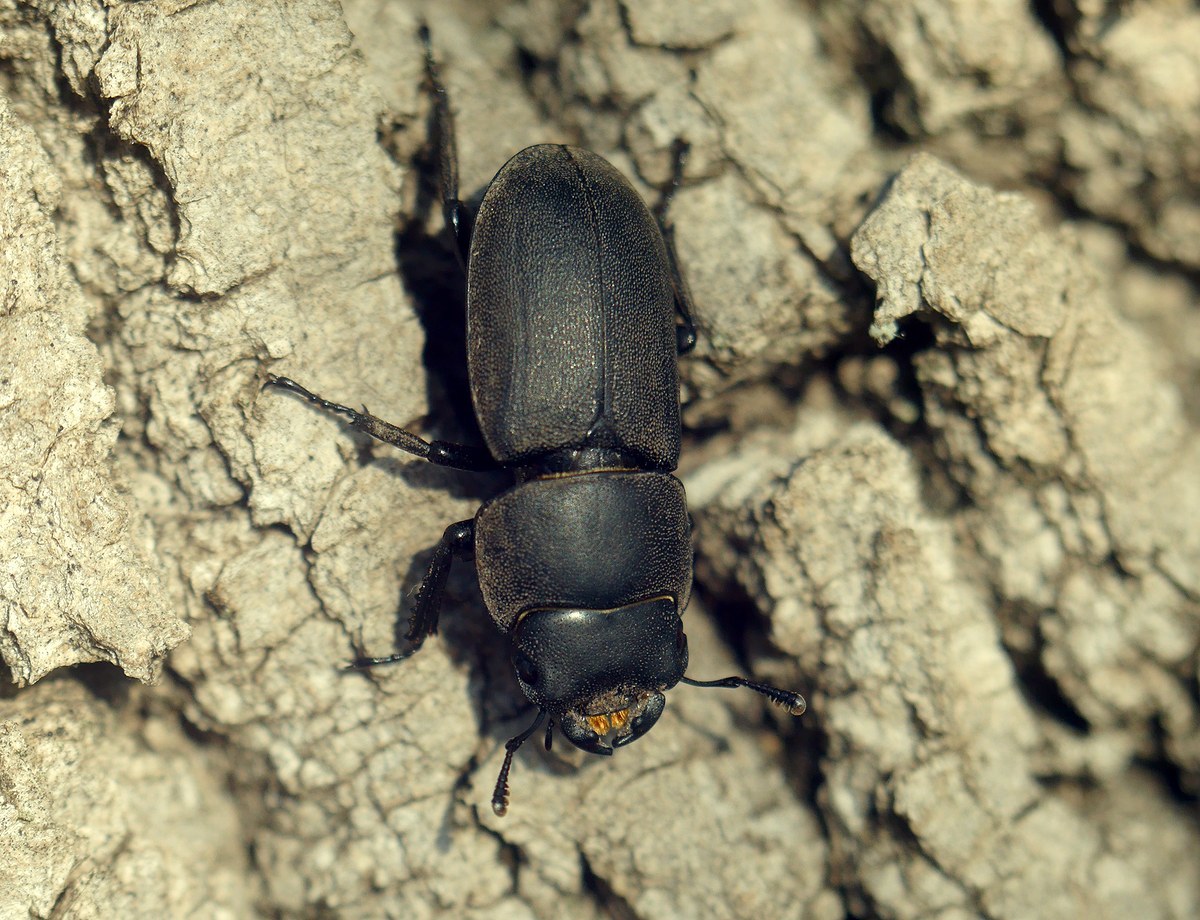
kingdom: Animalia
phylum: Arthropoda
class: Insecta
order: Coleoptera
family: Lucanidae
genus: Dorcus
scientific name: Dorcus parallelipipedus
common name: Lesser stag beetle
